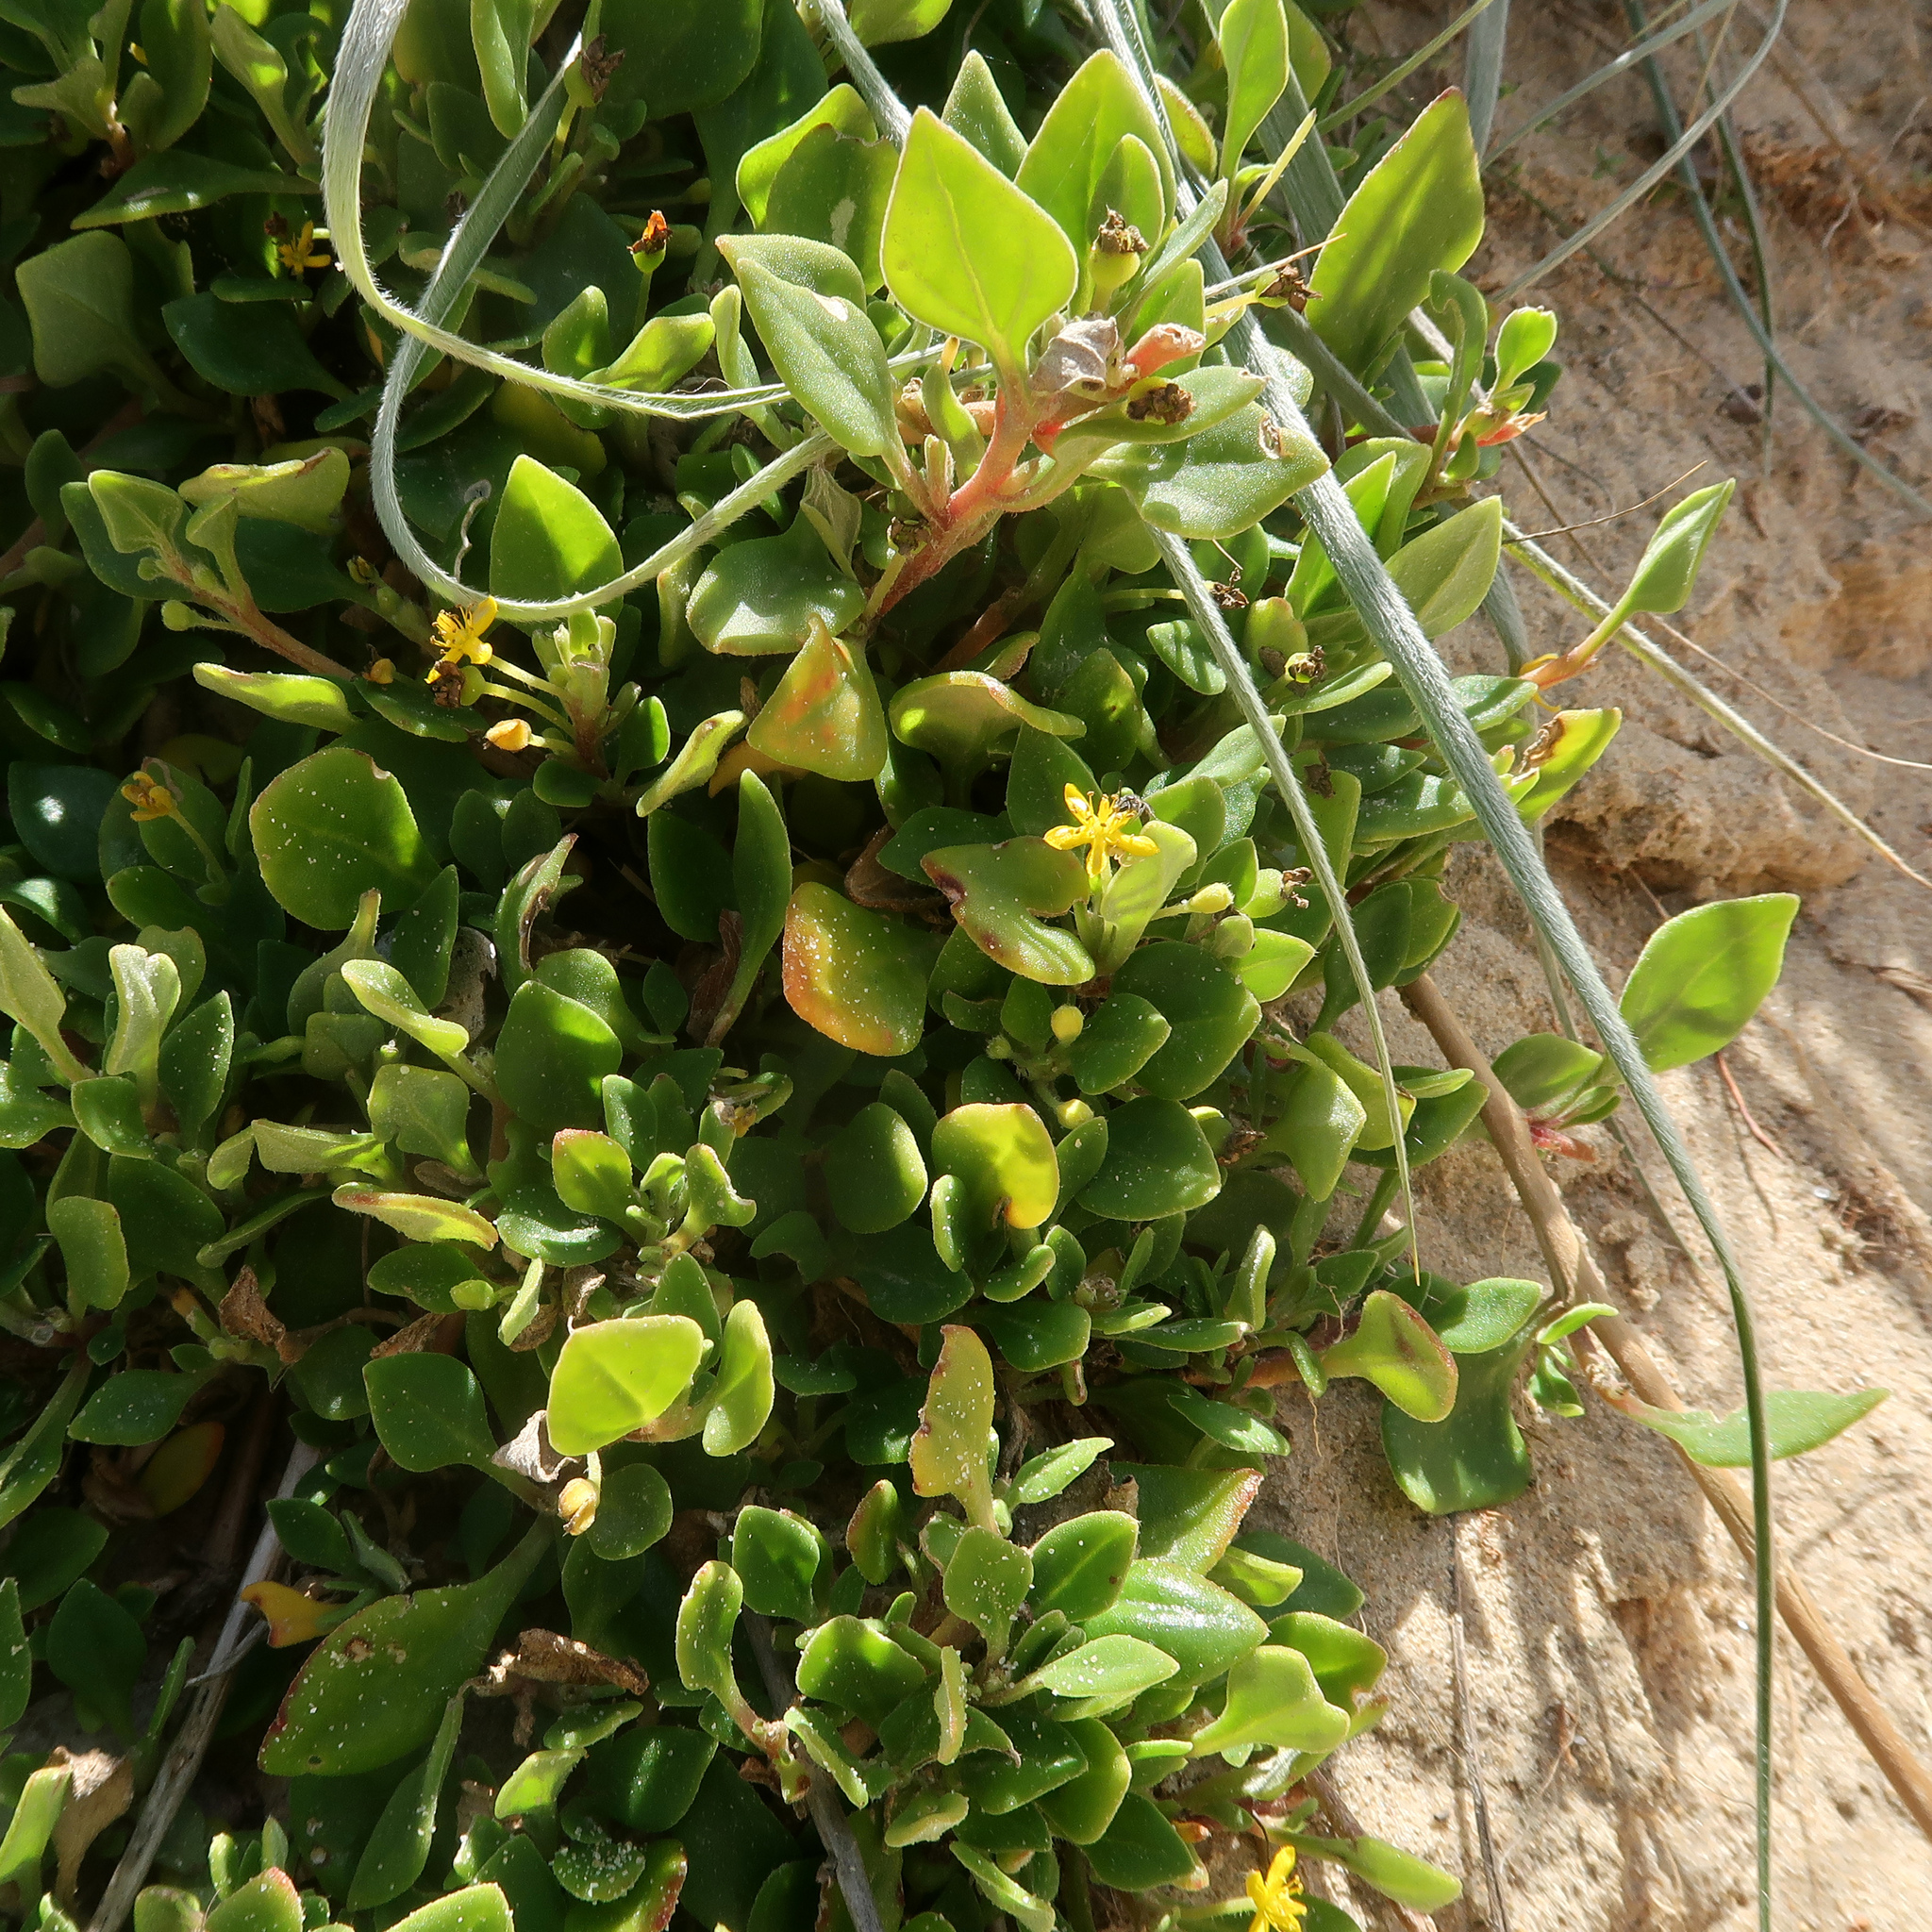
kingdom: Plantae
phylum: Tracheophyta
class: Magnoliopsida
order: Caryophyllales
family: Aizoaceae
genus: Tetragonia
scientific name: Tetragonia implexicoma
